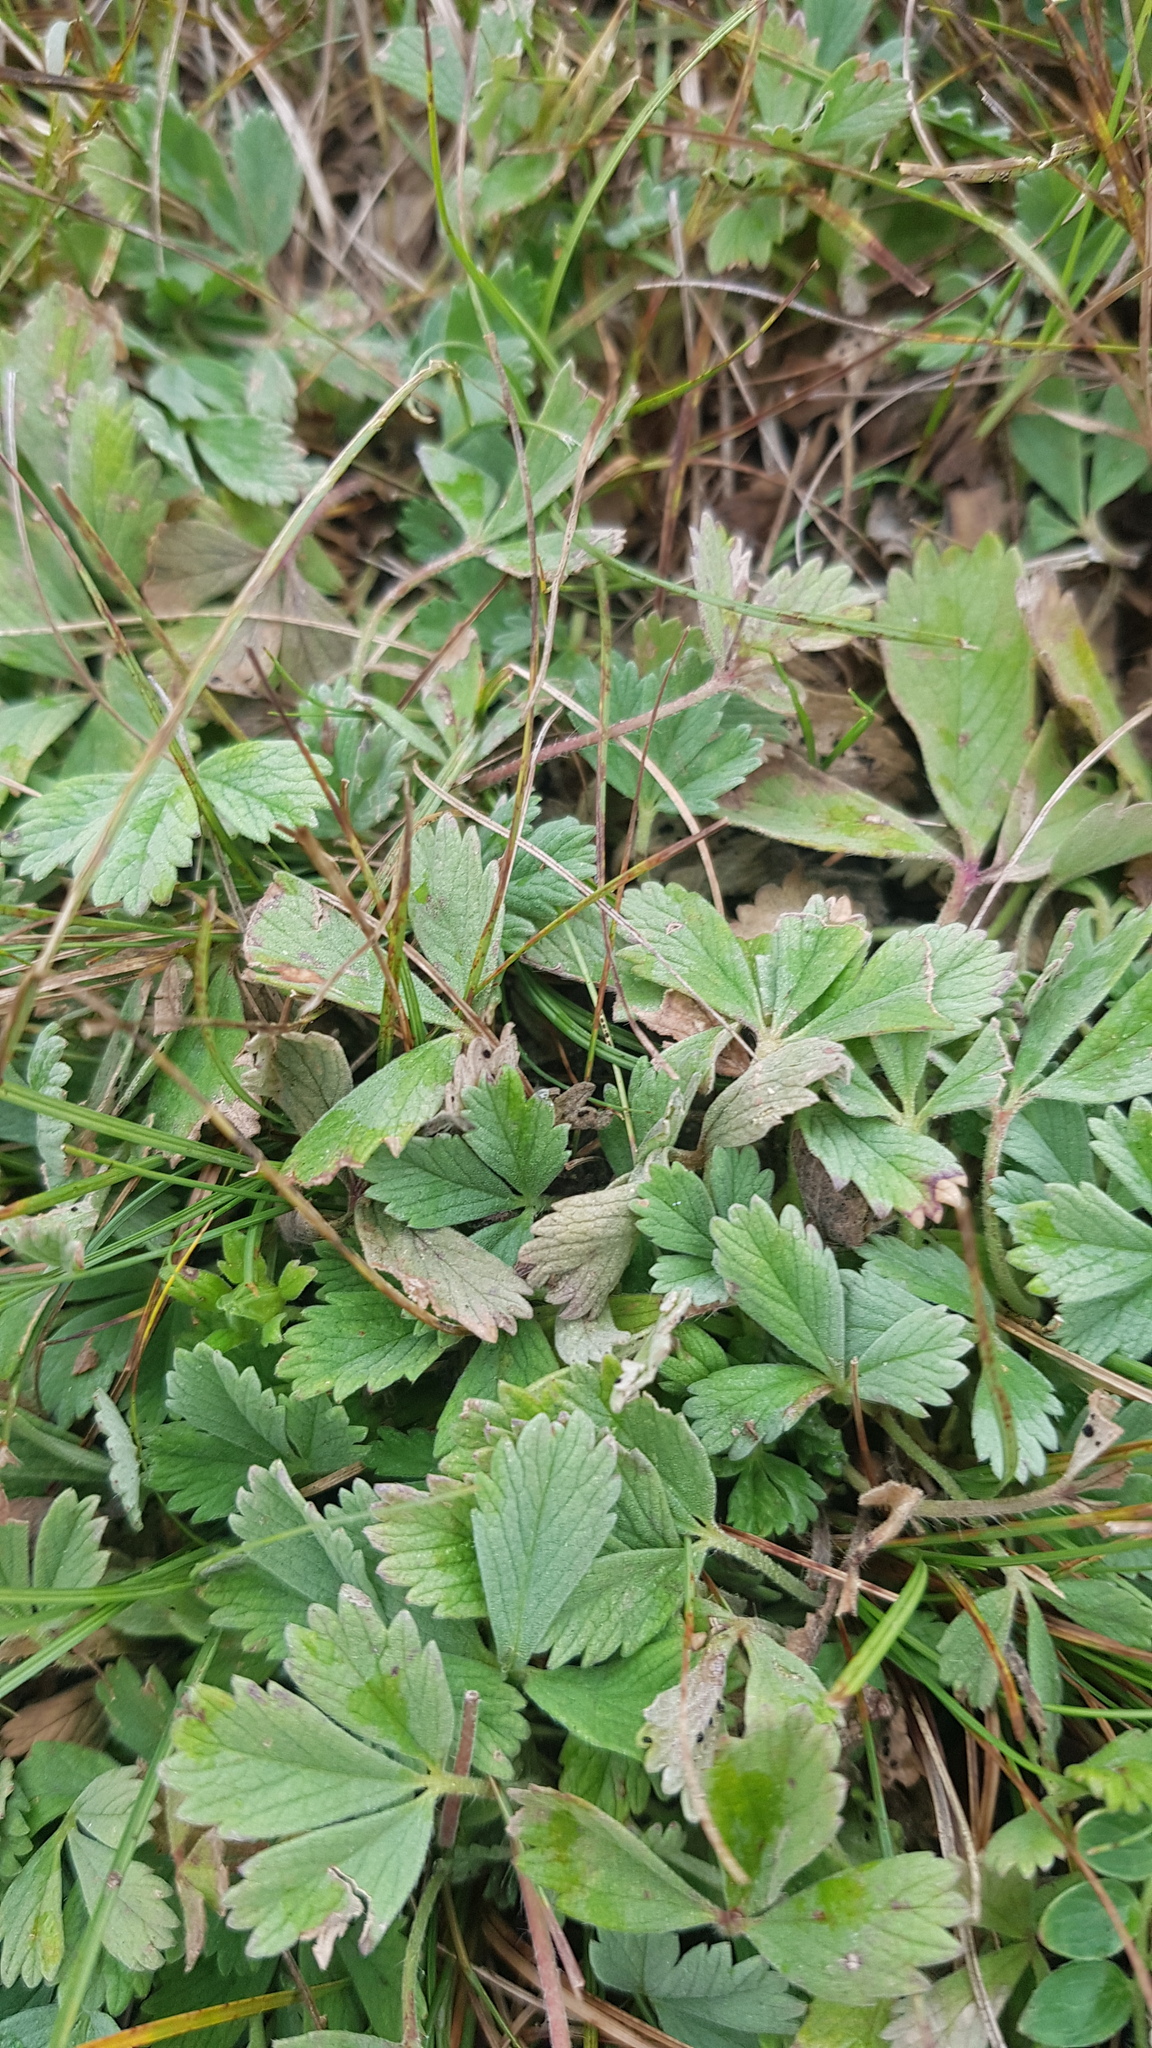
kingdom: Plantae
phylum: Tracheophyta
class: Magnoliopsida
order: Rosales
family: Rosaceae
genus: Potentilla
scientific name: Potentilla acaulis
